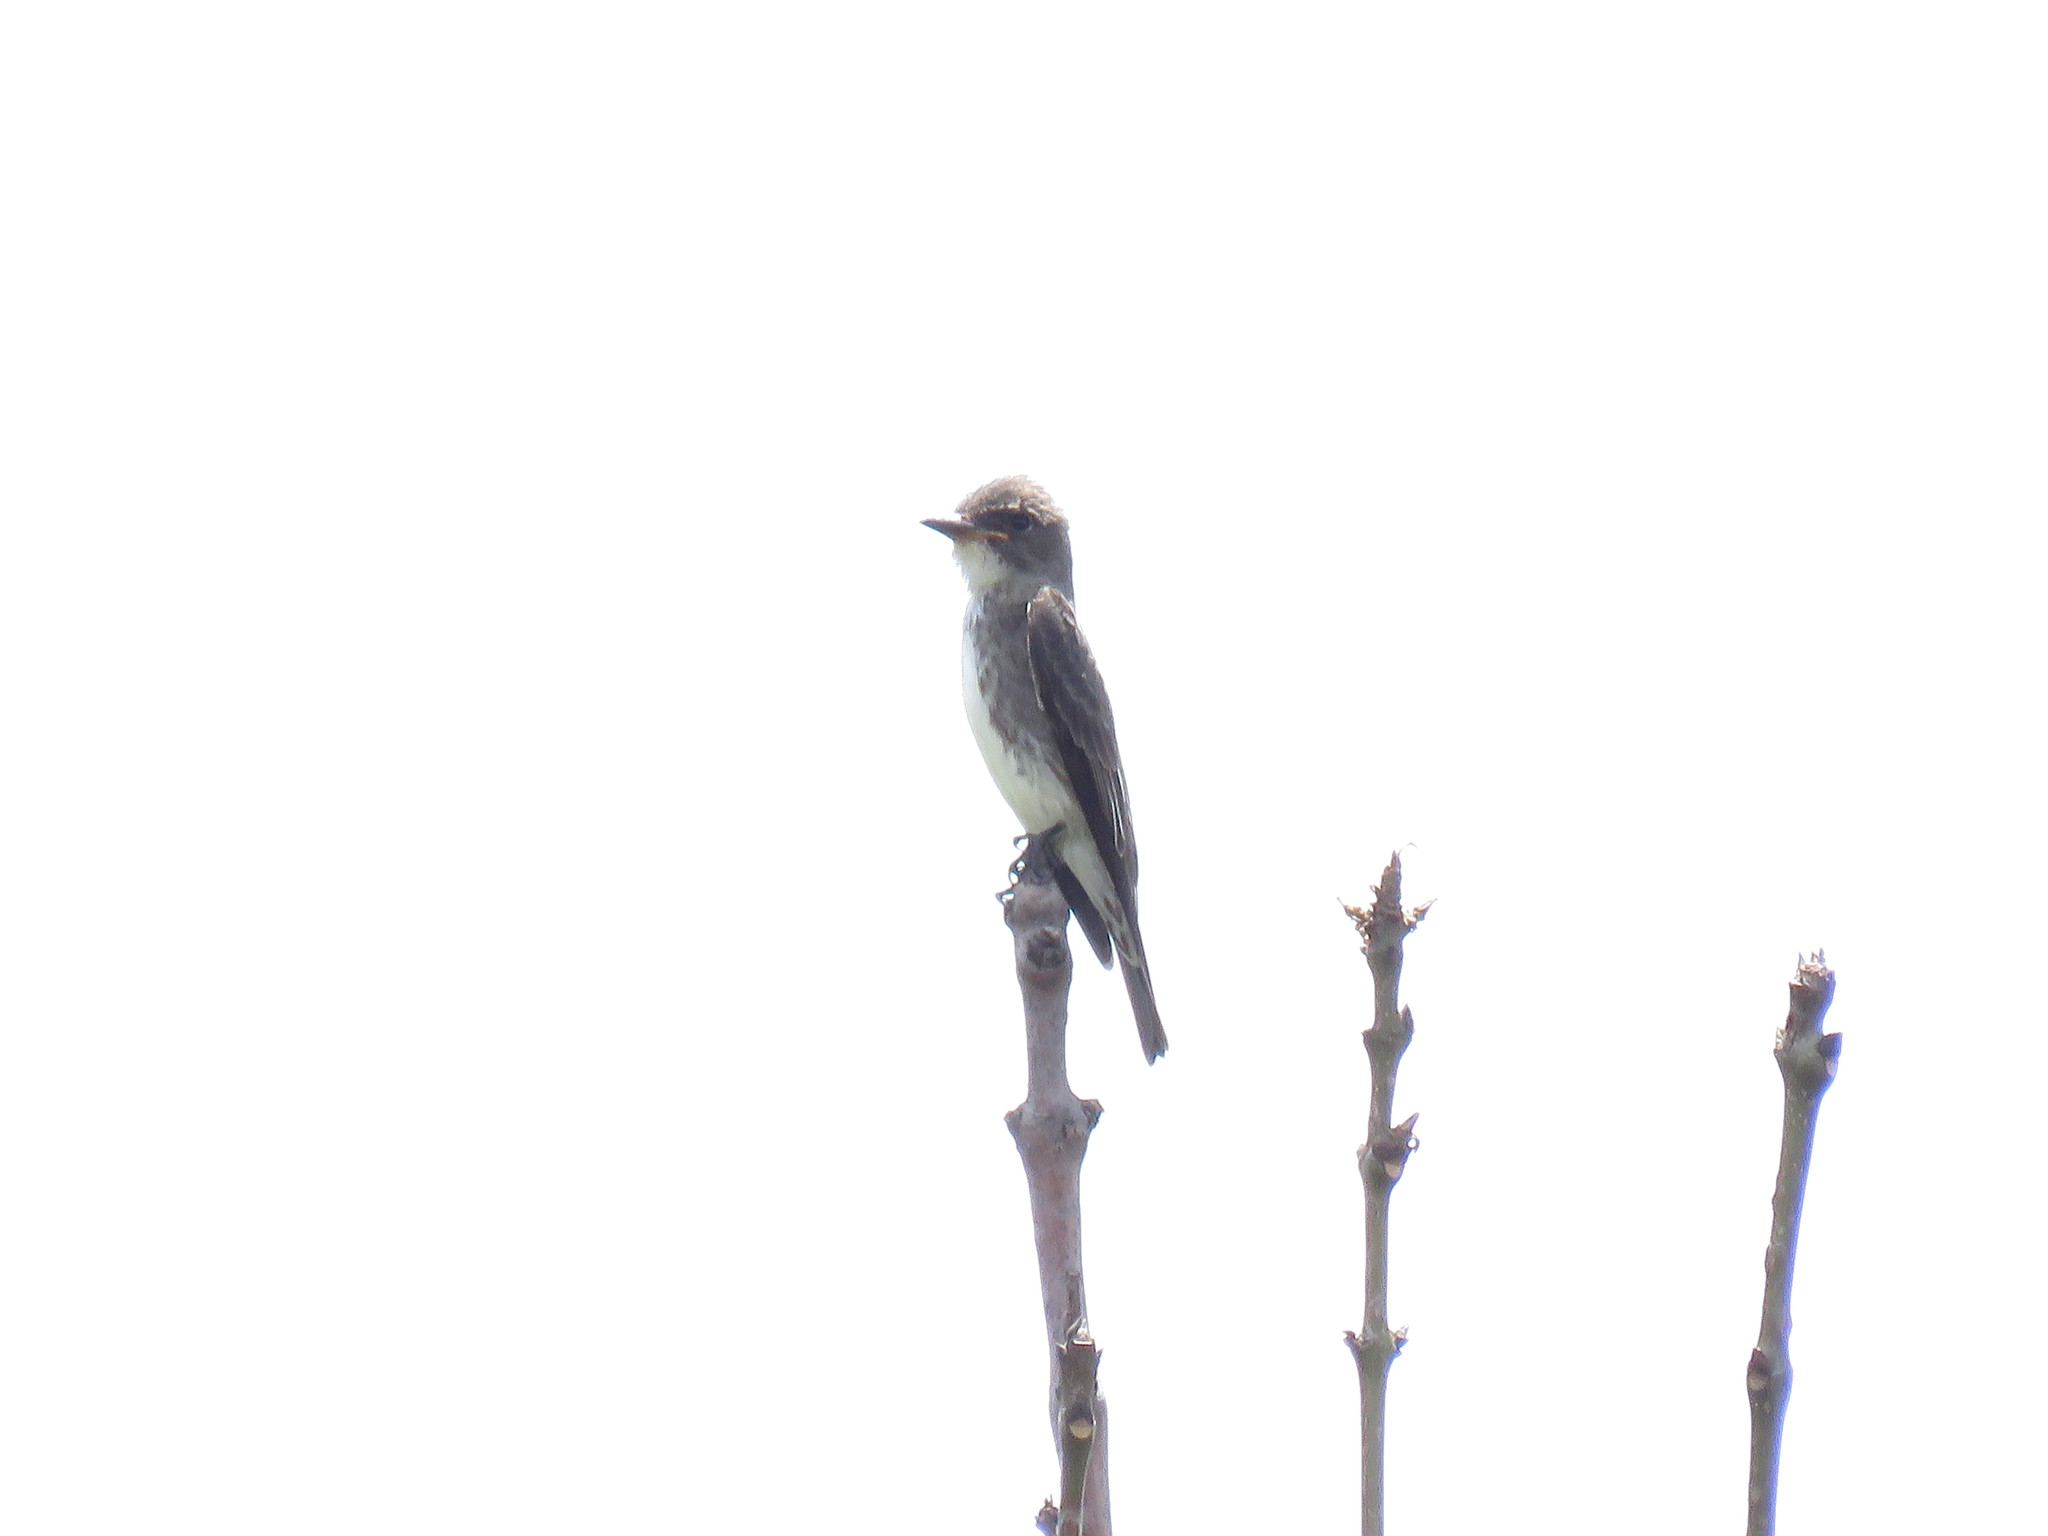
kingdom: Animalia
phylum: Chordata
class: Aves
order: Passeriformes
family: Tyrannidae
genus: Contopus
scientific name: Contopus cooperi
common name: Olive-sided flycatcher
